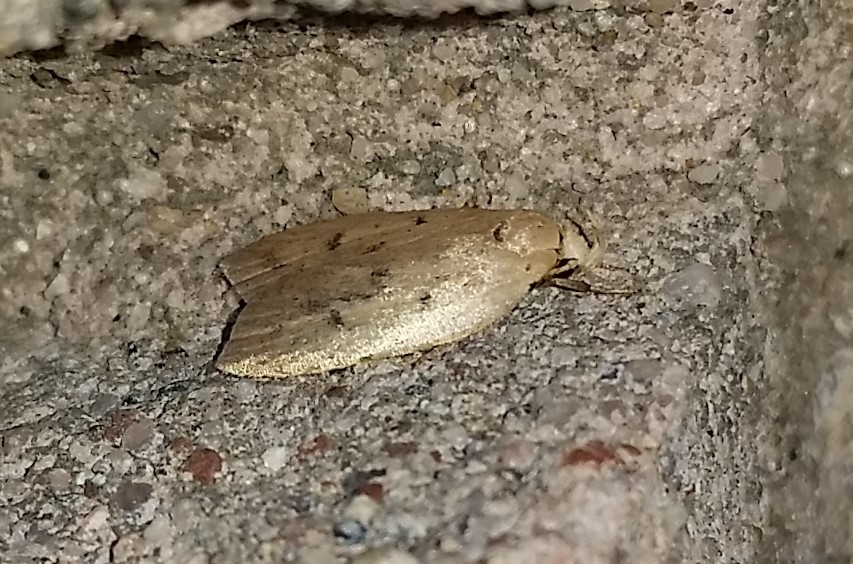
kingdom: Animalia
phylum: Arthropoda
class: Insecta
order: Lepidoptera
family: Peleopodidae
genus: Machimia
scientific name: Machimia tentoriferella
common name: Gold-striped leaftier moth
